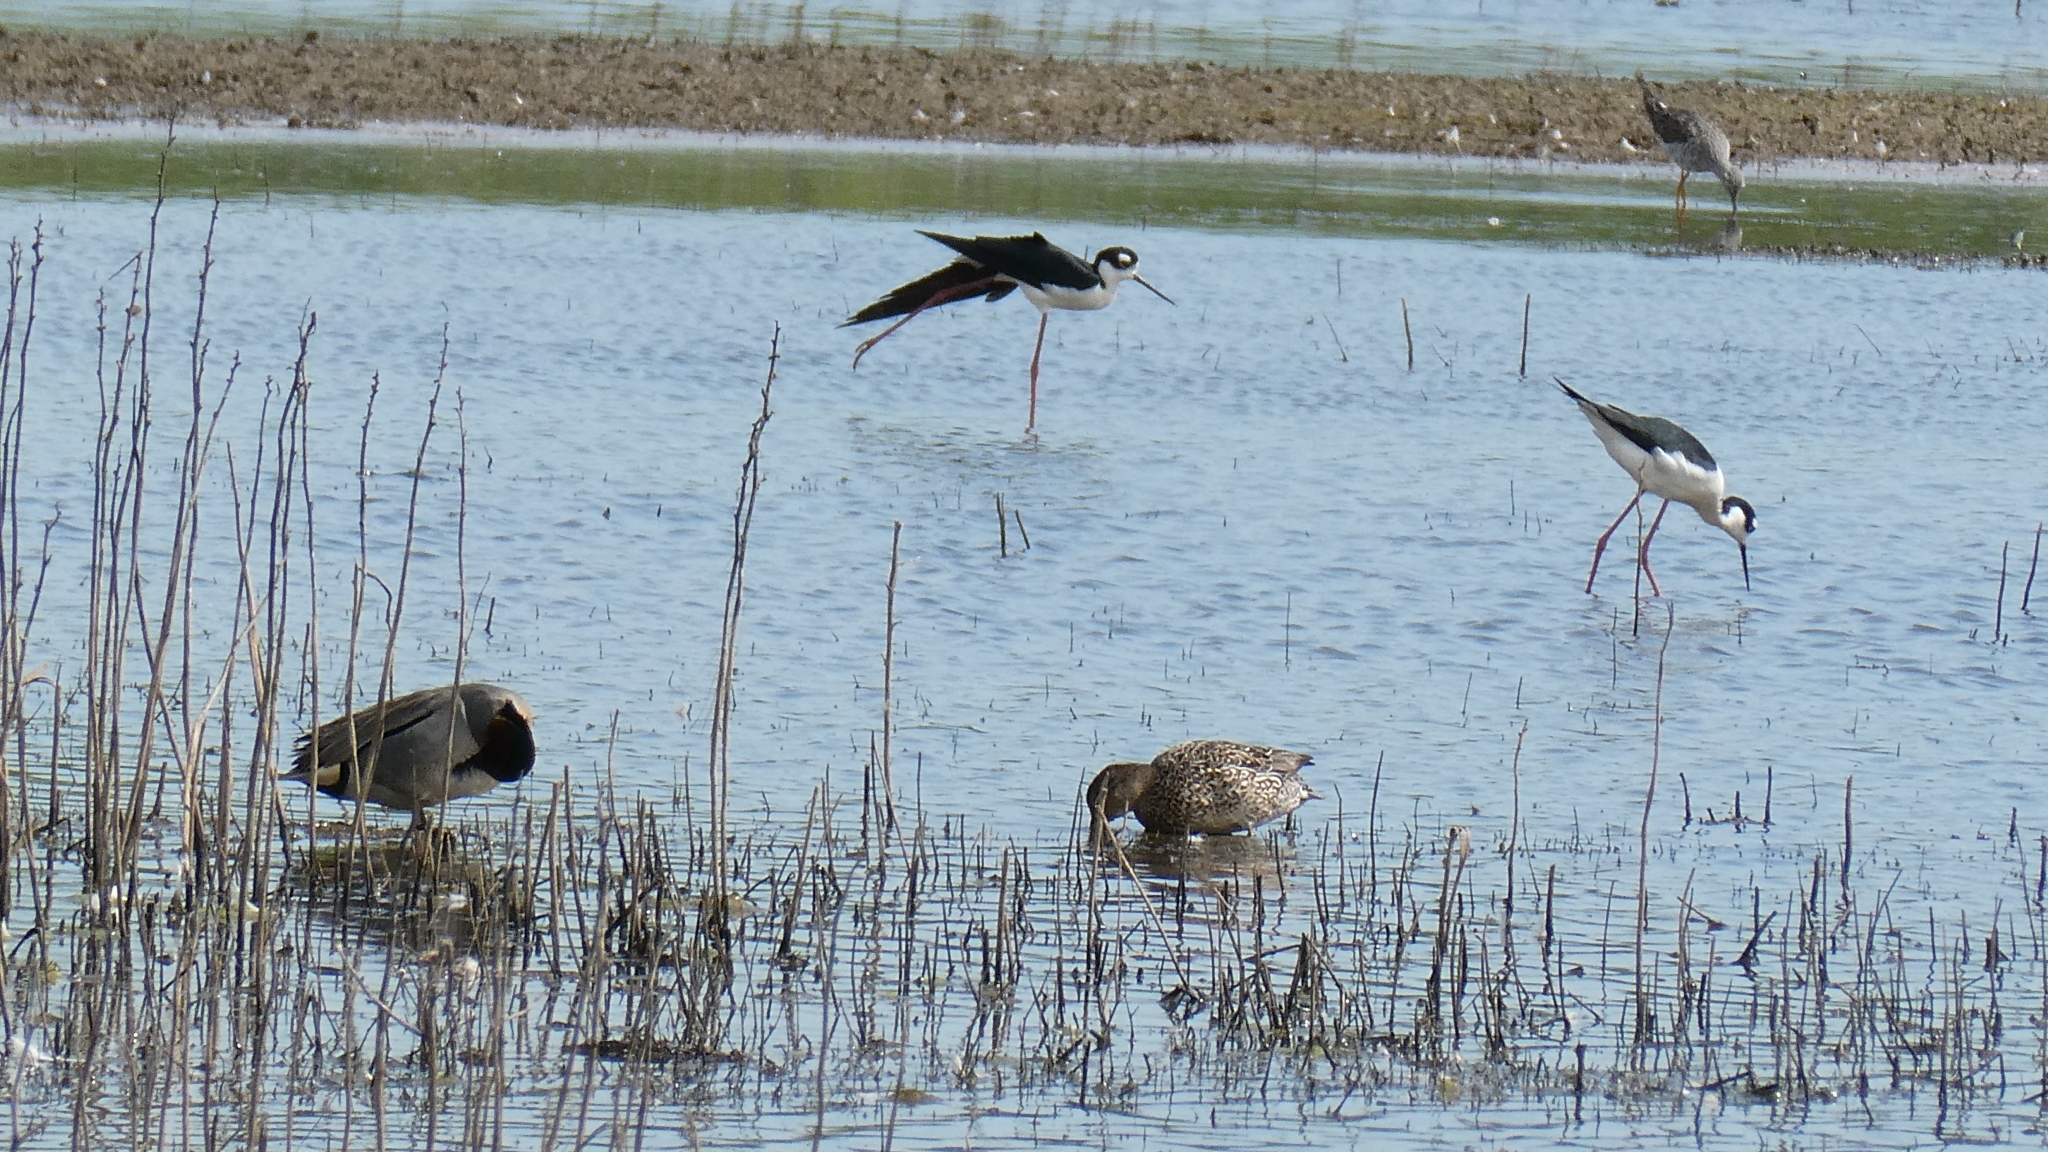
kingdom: Animalia
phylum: Chordata
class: Aves
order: Charadriiformes
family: Recurvirostridae
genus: Himantopus
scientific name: Himantopus mexicanus
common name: Black-necked stilt
